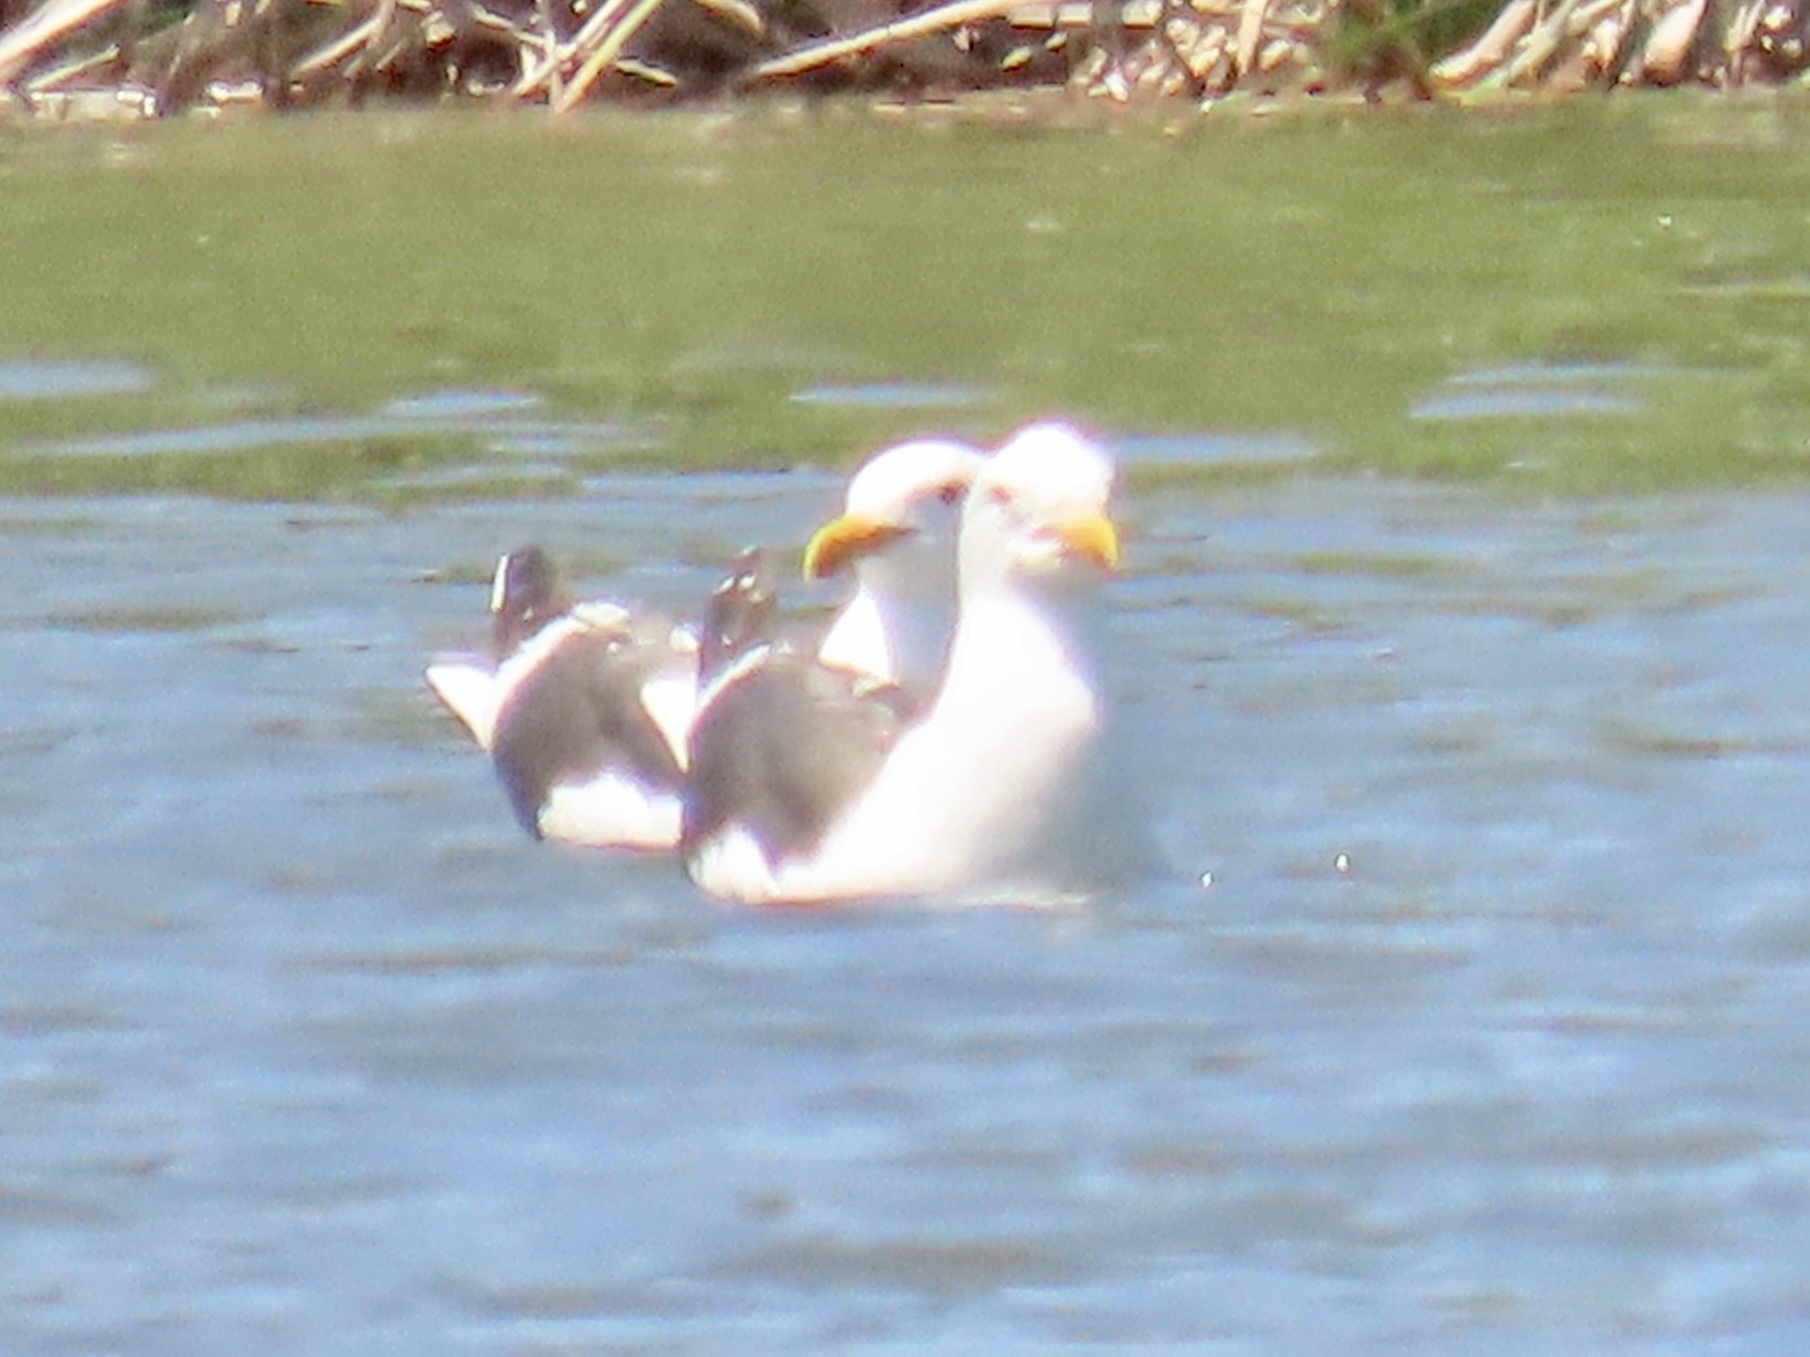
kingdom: Animalia
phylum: Chordata
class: Aves
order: Charadriiformes
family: Laridae
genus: Larus
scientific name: Larus occidentalis
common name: Western gull
